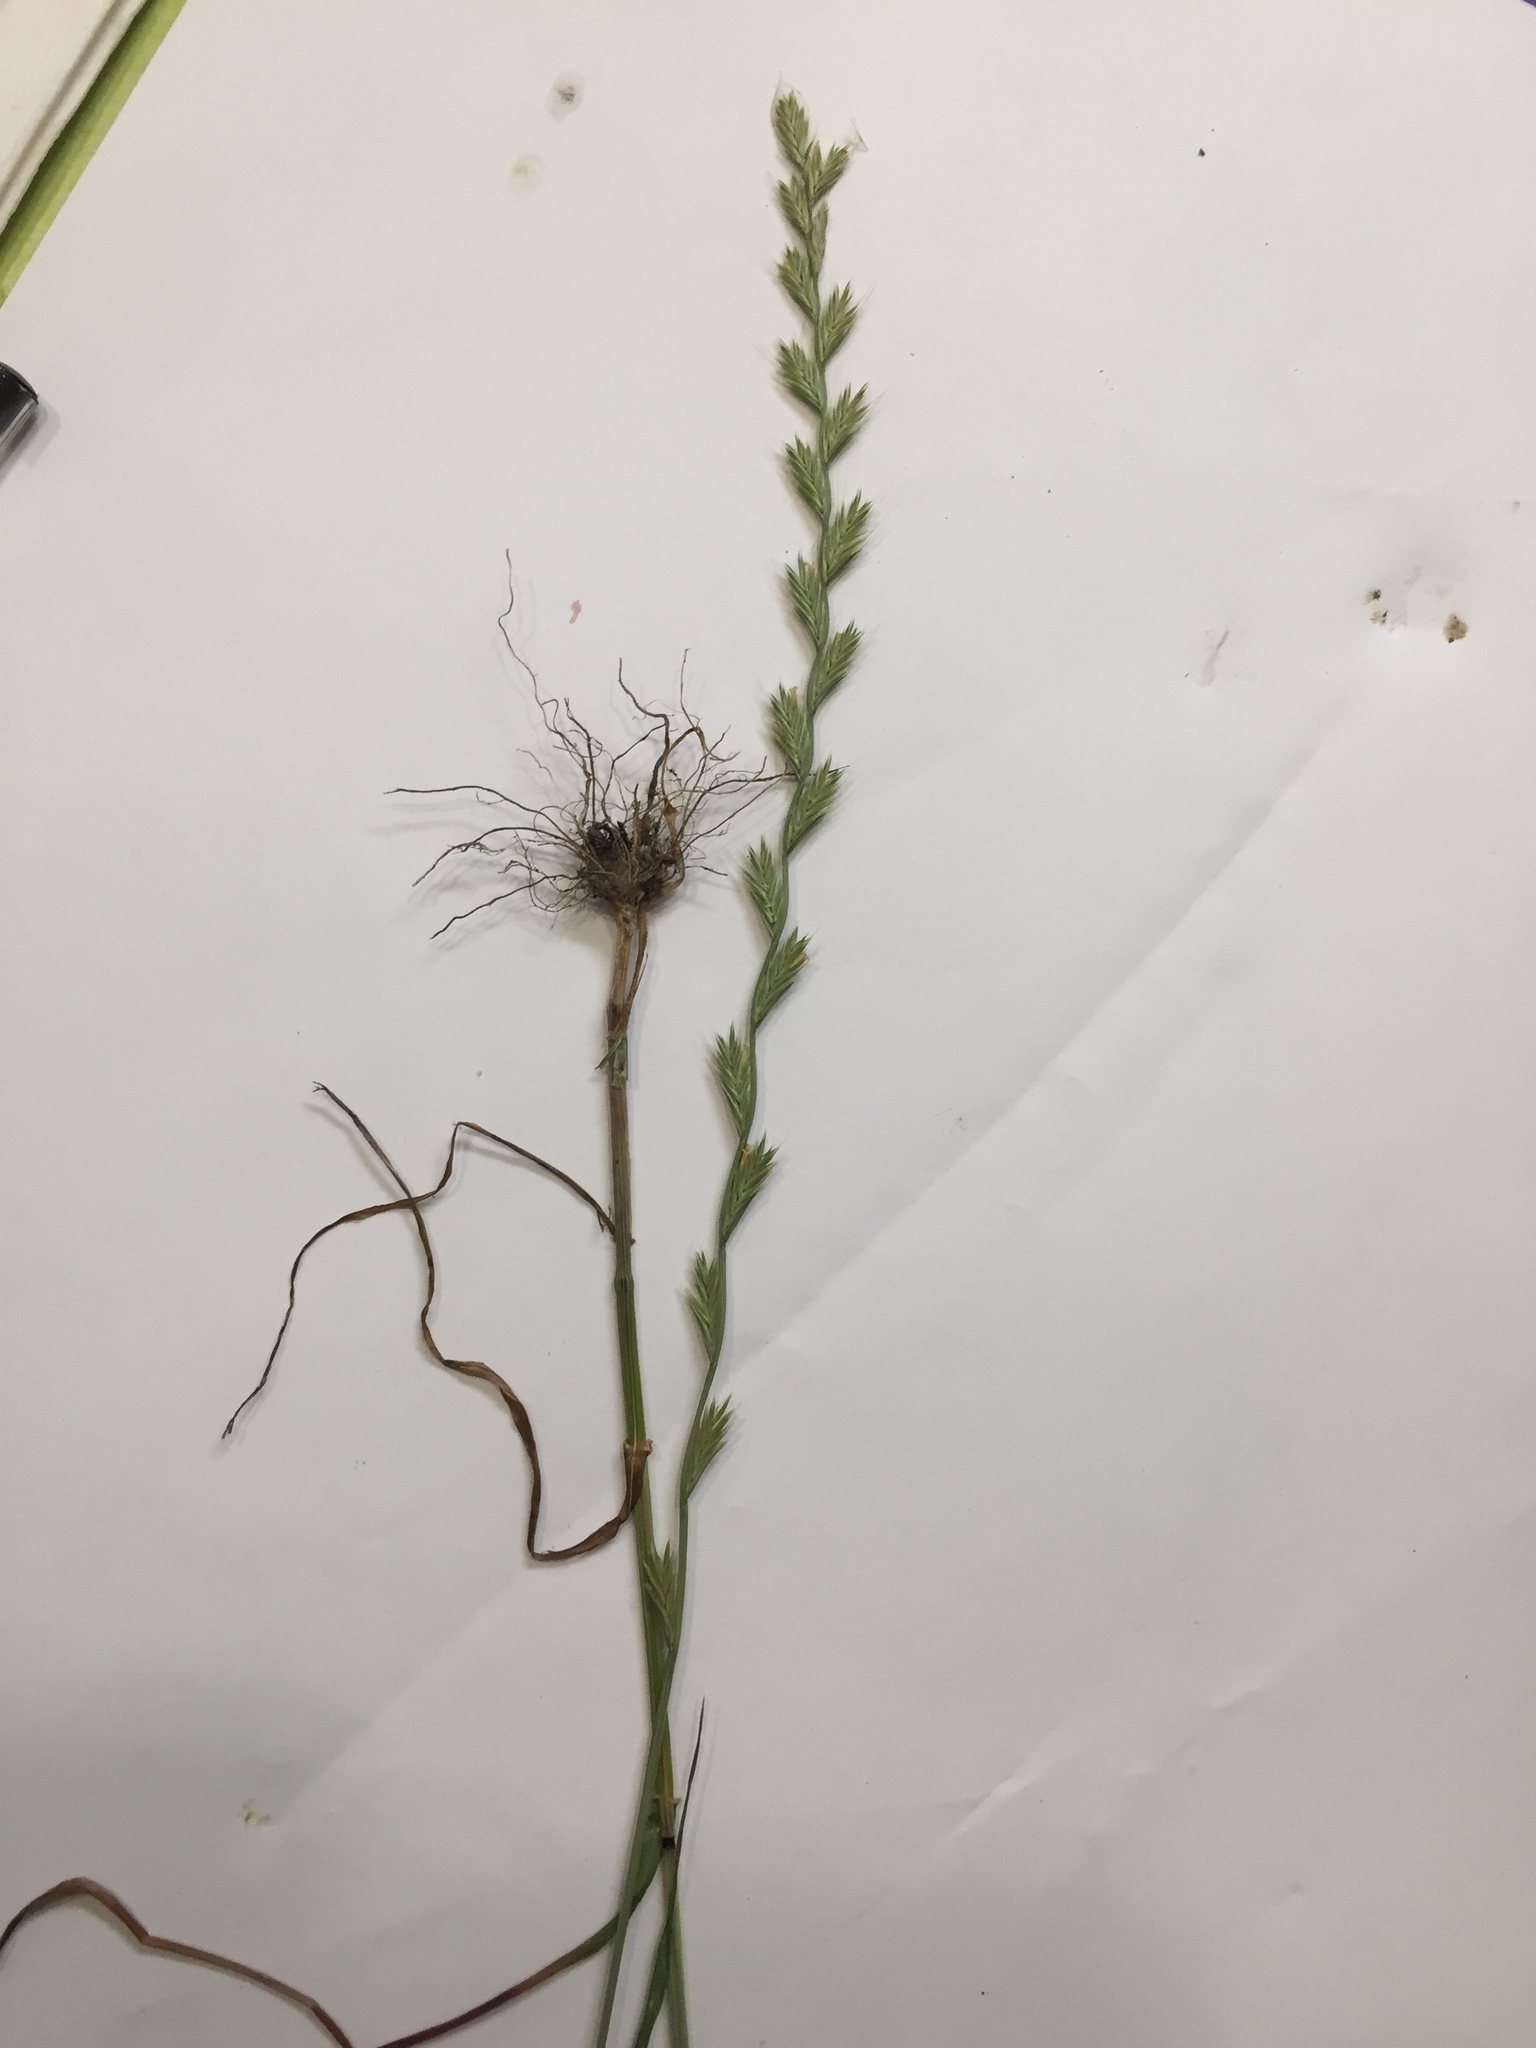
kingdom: Plantae
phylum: Tracheophyta
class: Liliopsida
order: Poales
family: Poaceae
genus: Lolium
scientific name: Lolium multiflorum
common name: Annual ryegrass
